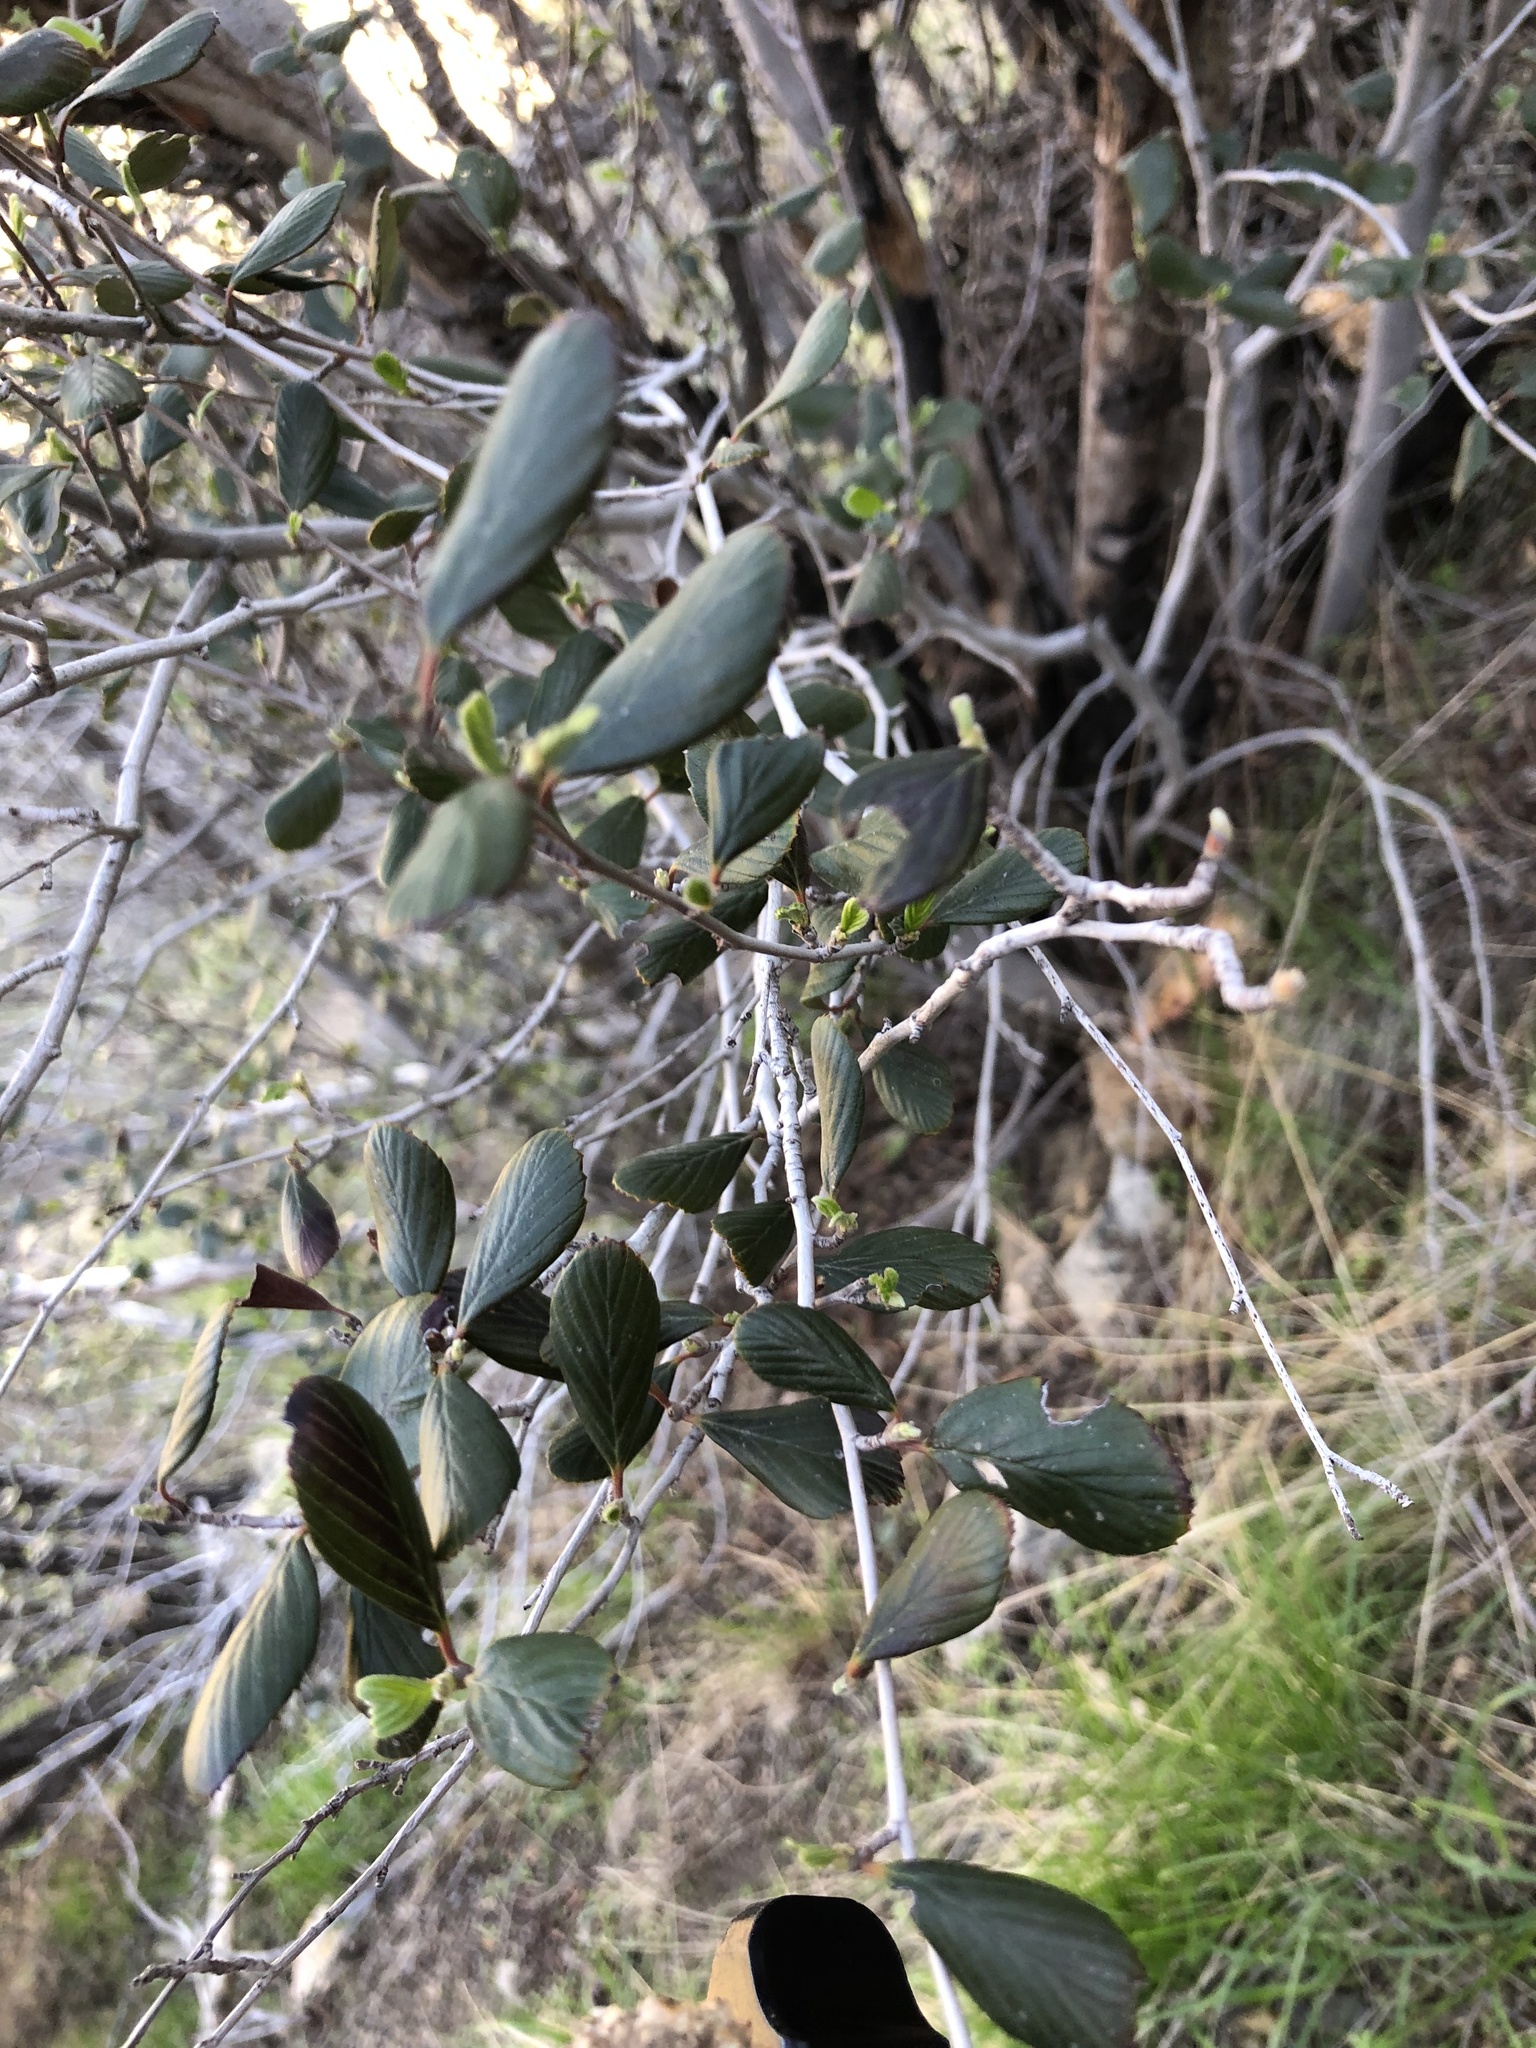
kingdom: Plantae
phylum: Tracheophyta
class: Magnoliopsida
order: Rosales
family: Rosaceae
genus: Cercocarpus
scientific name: Cercocarpus betuloides
